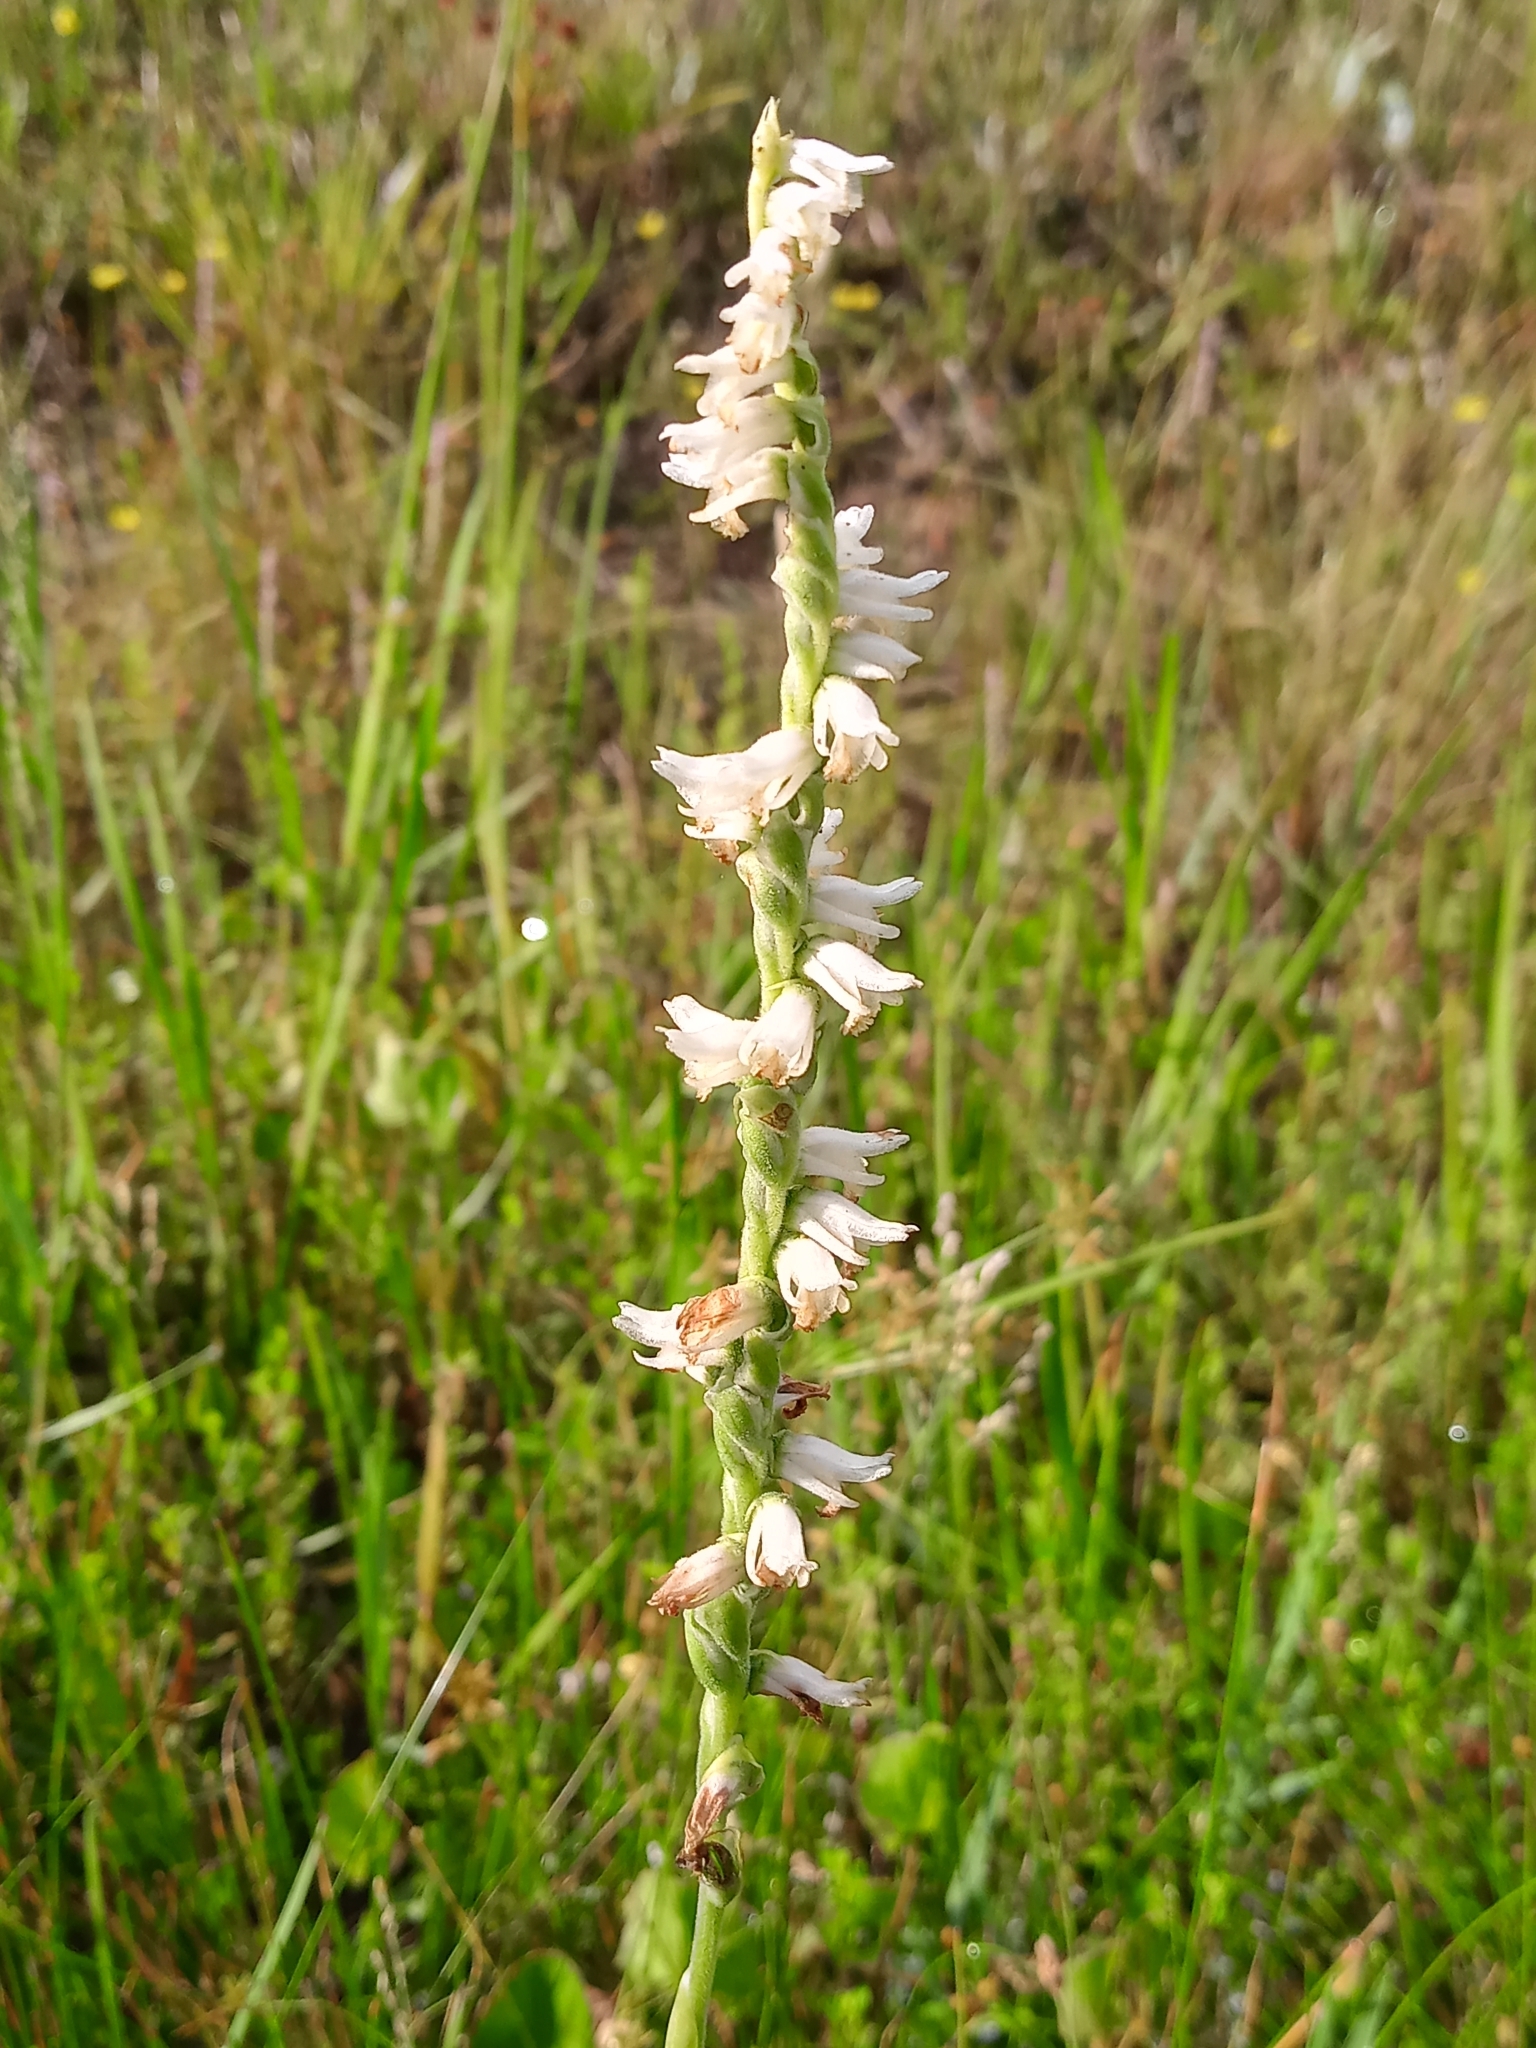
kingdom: Plantae
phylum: Tracheophyta
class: Liliopsida
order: Asparagales
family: Orchidaceae
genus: Spiranthes
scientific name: Spiranthes vernalis
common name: Spring ladies'-tresses
